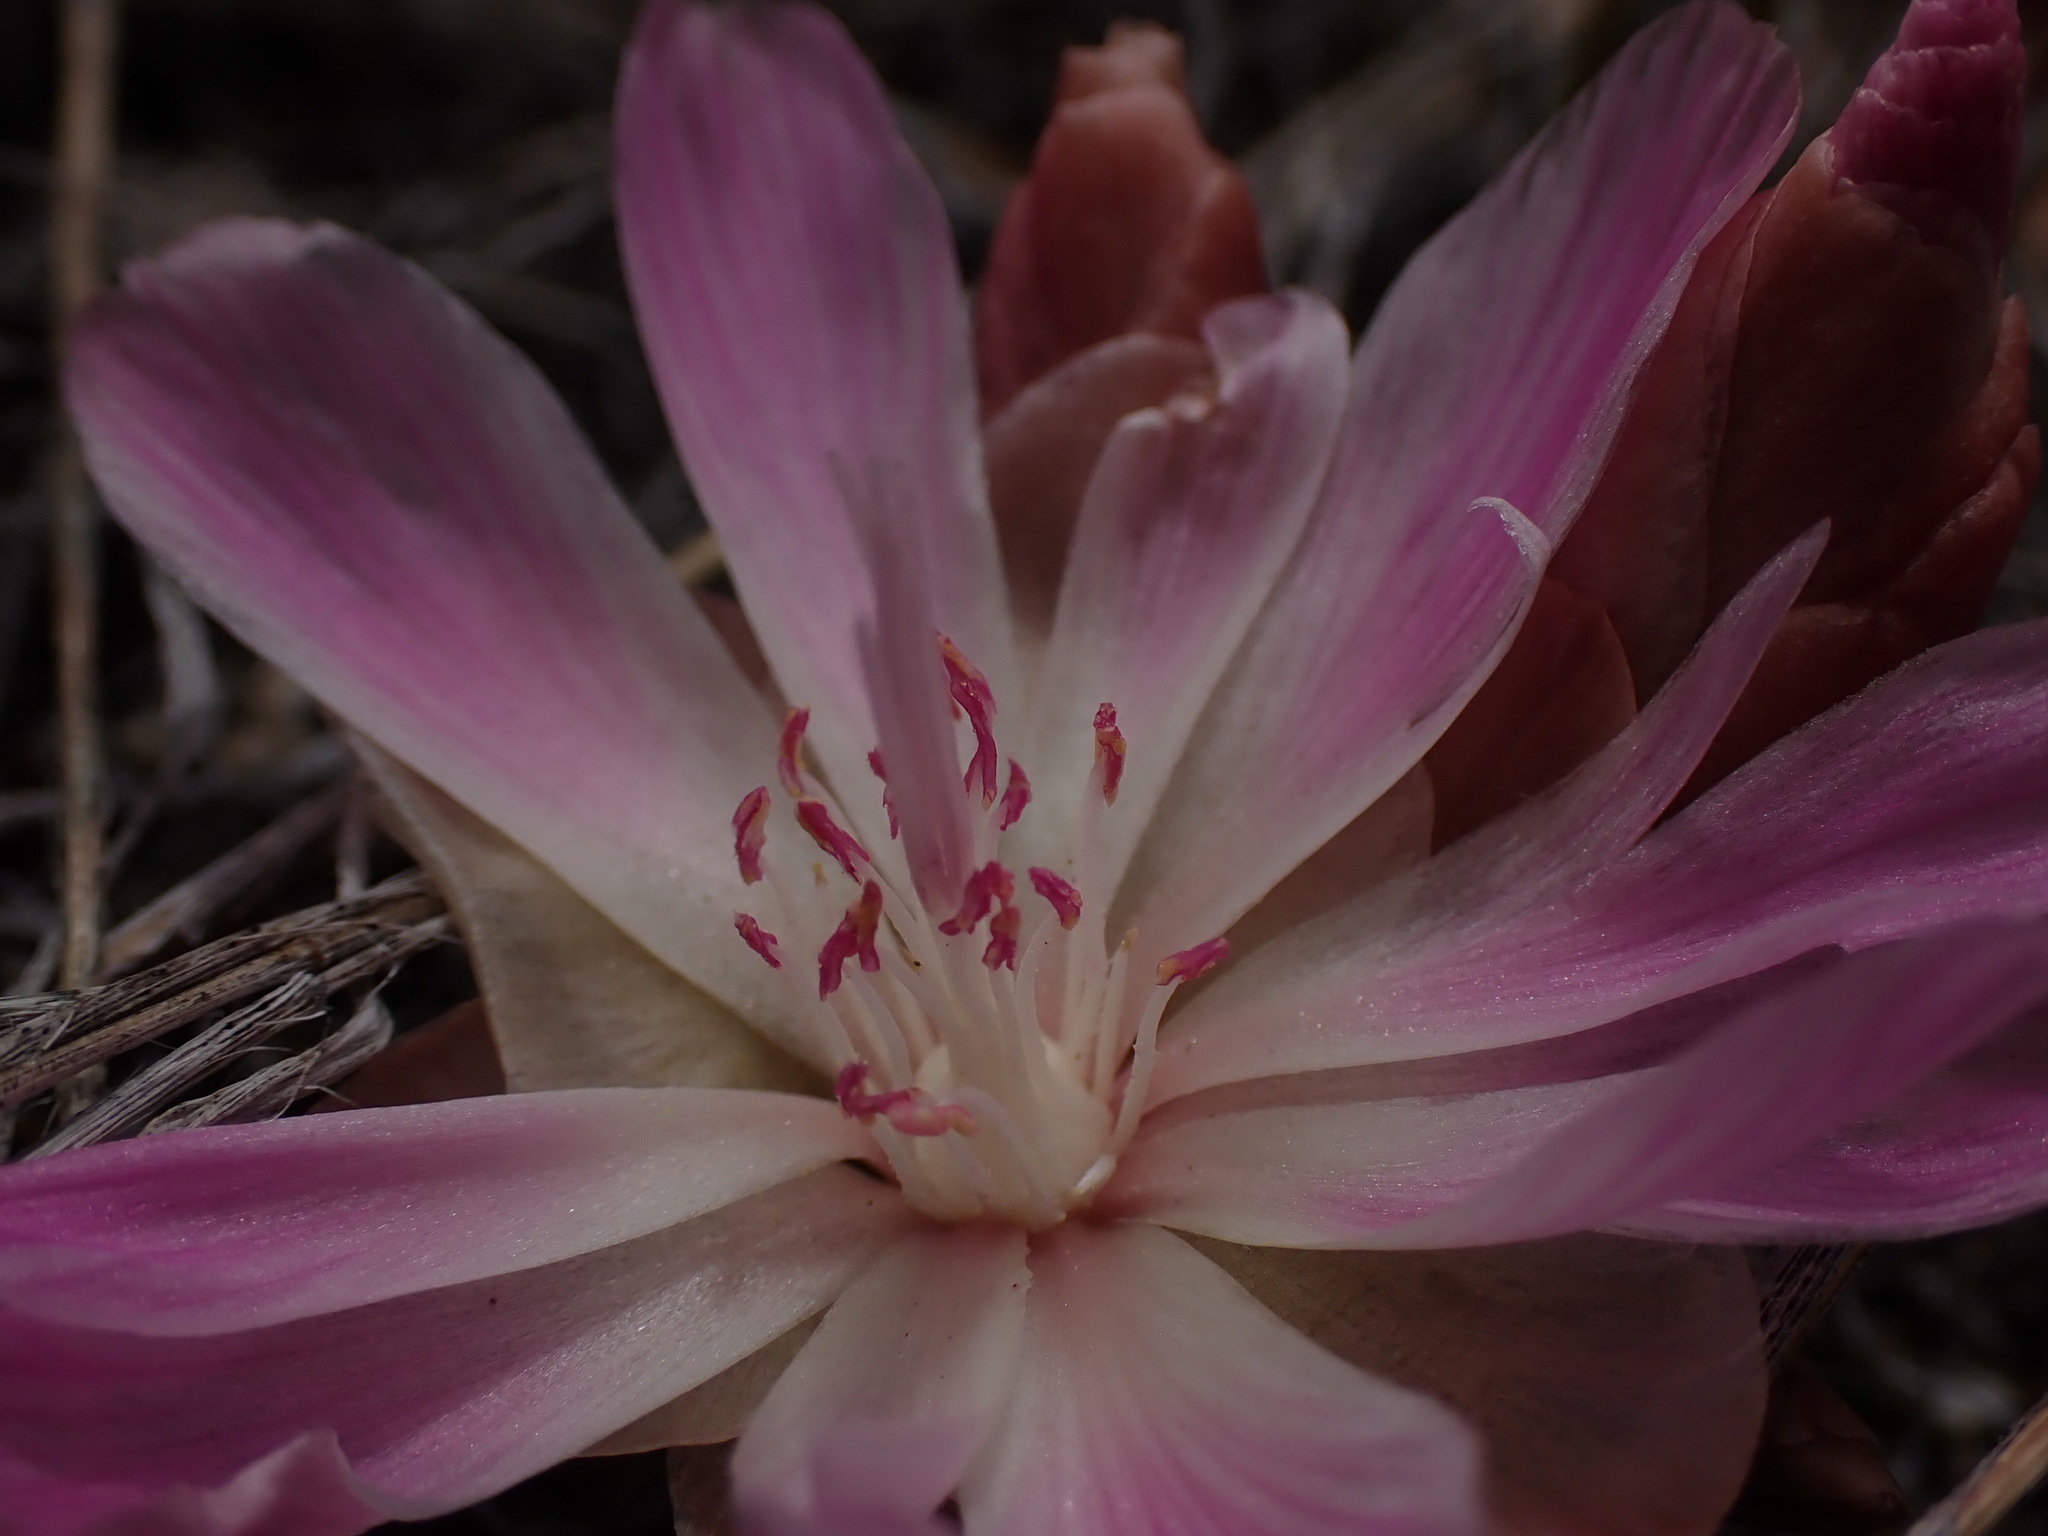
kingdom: Plantae
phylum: Tracheophyta
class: Magnoliopsida
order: Caryophyllales
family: Montiaceae
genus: Lewisia
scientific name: Lewisia rediviva
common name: Bitter-root
